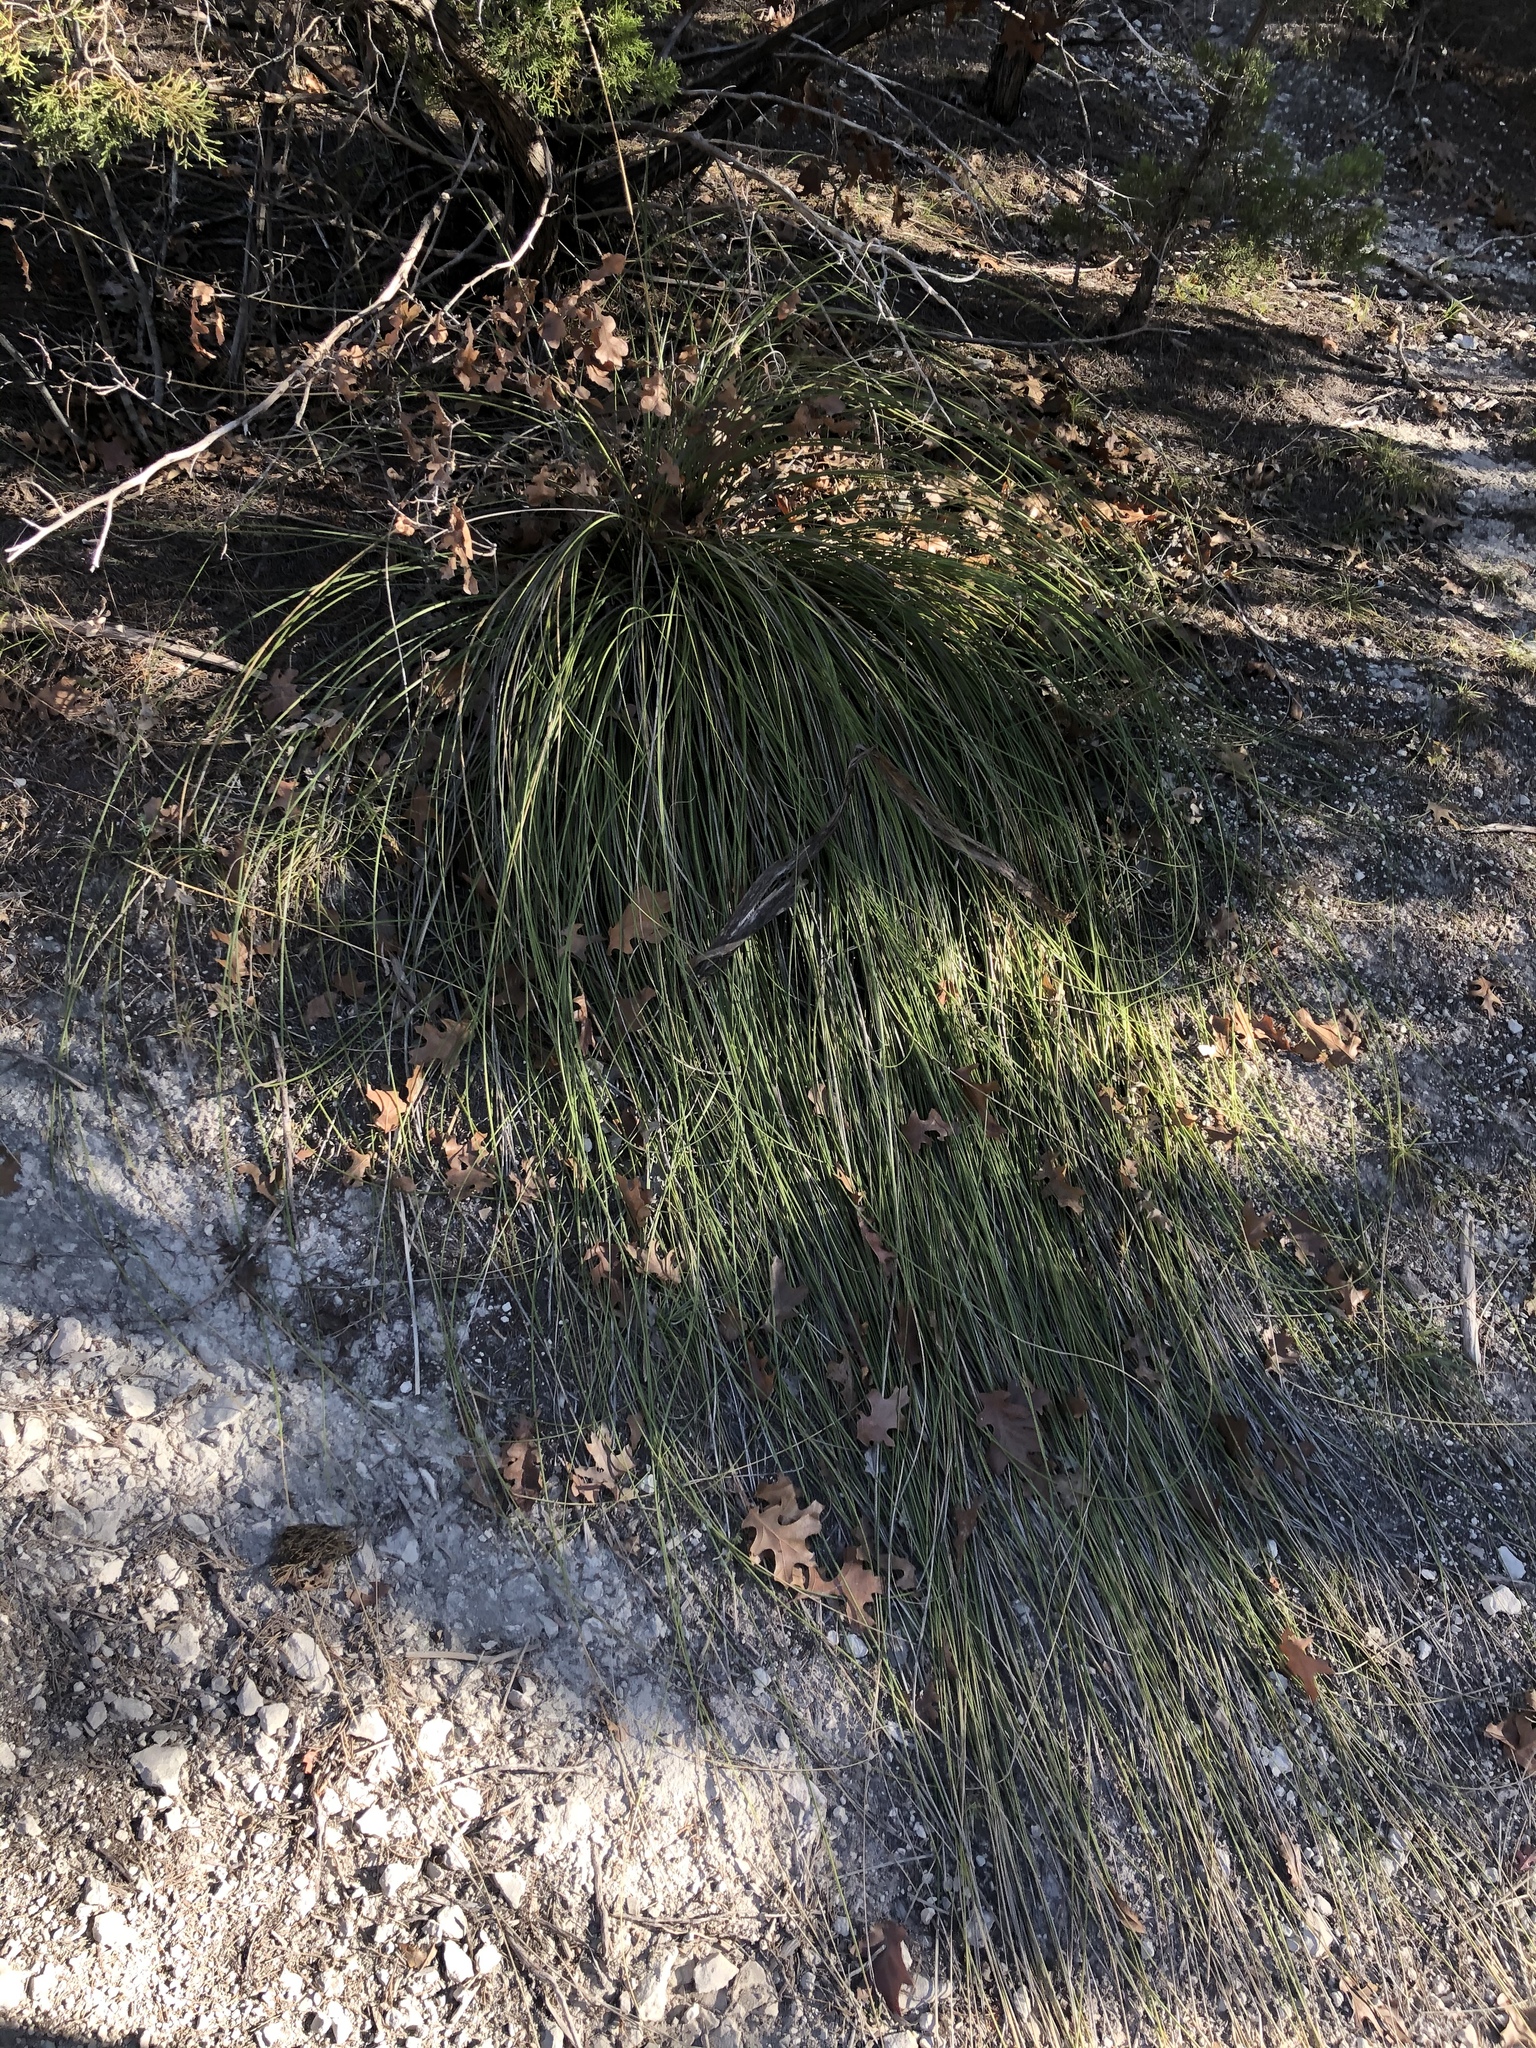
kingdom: Plantae
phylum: Tracheophyta
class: Liliopsida
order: Asparagales
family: Asparagaceae
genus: Nolina
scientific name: Nolina texana
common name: Texas sacahuiste
